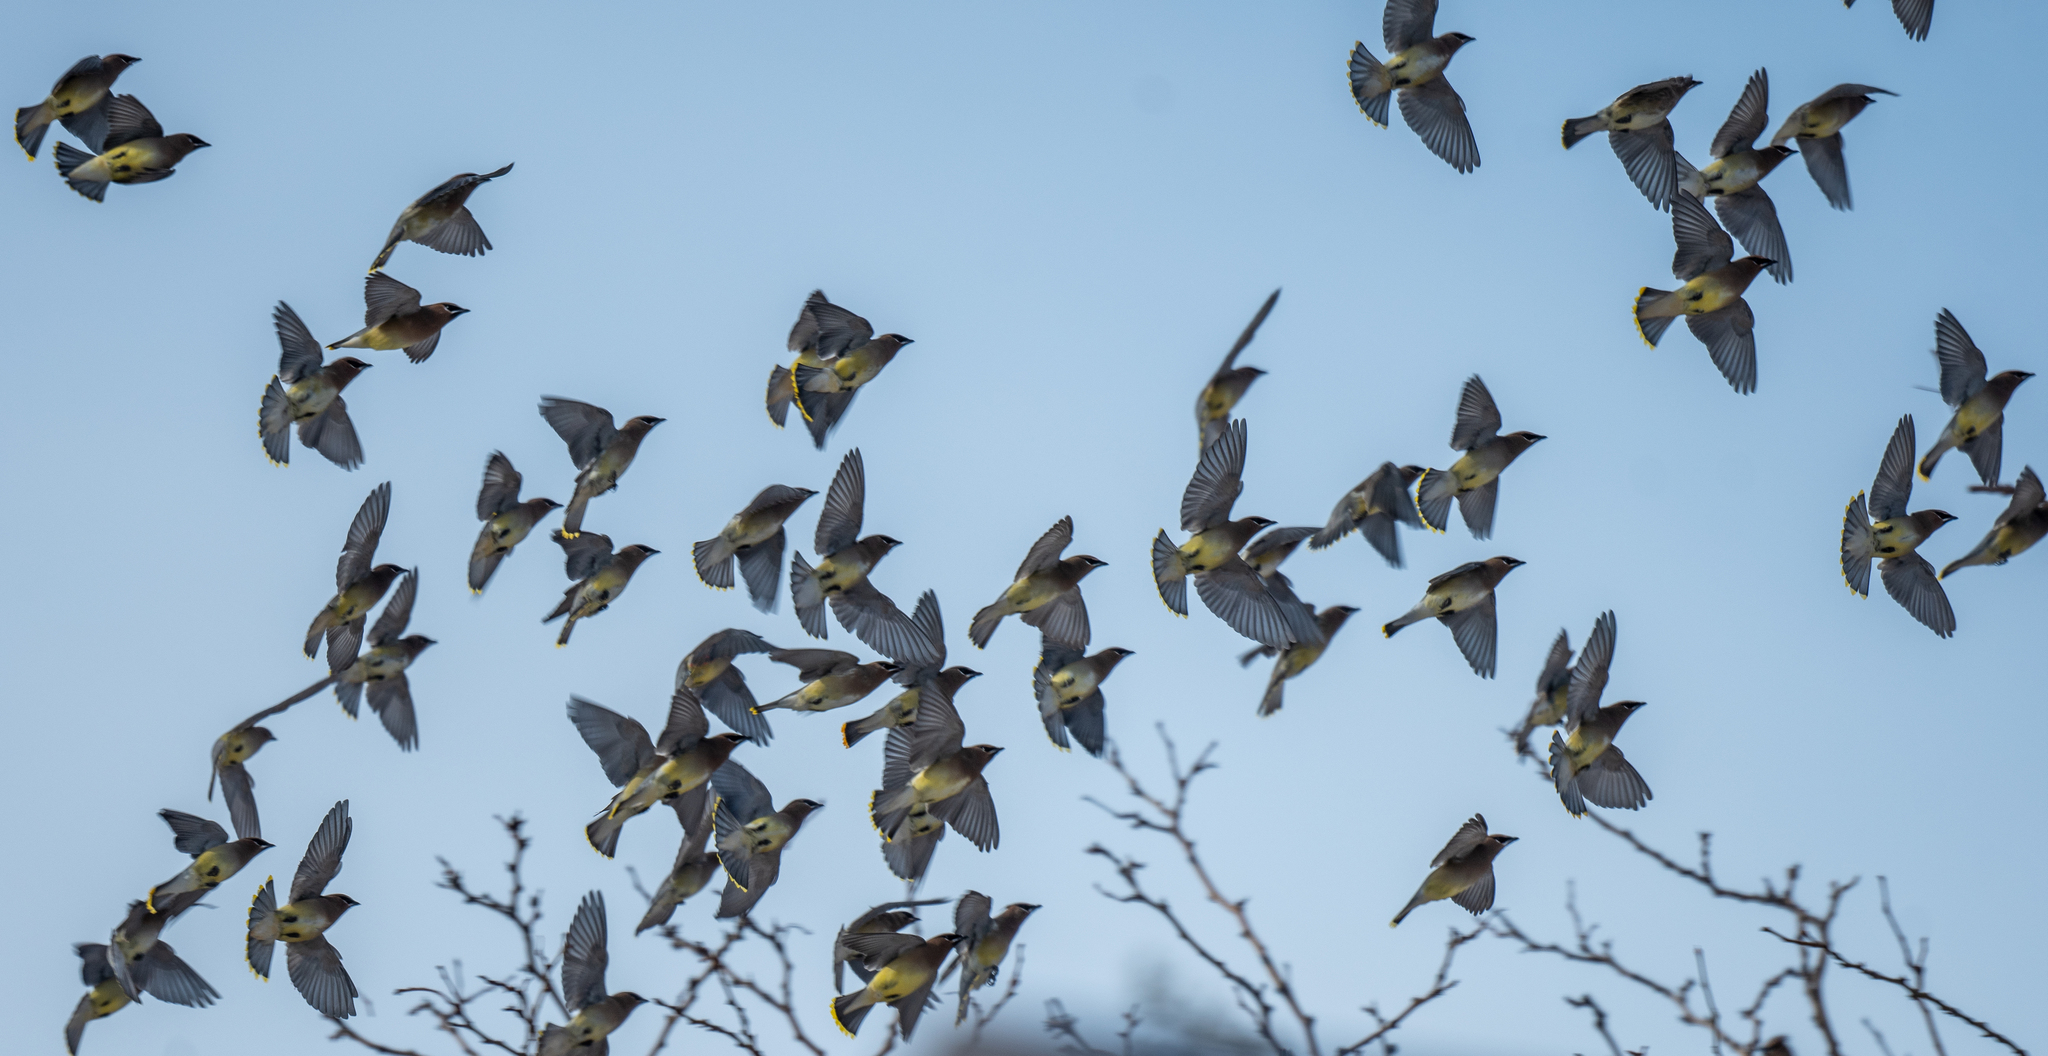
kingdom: Animalia
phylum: Chordata
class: Aves
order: Passeriformes
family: Bombycillidae
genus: Bombycilla
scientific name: Bombycilla cedrorum
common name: Cedar waxwing
